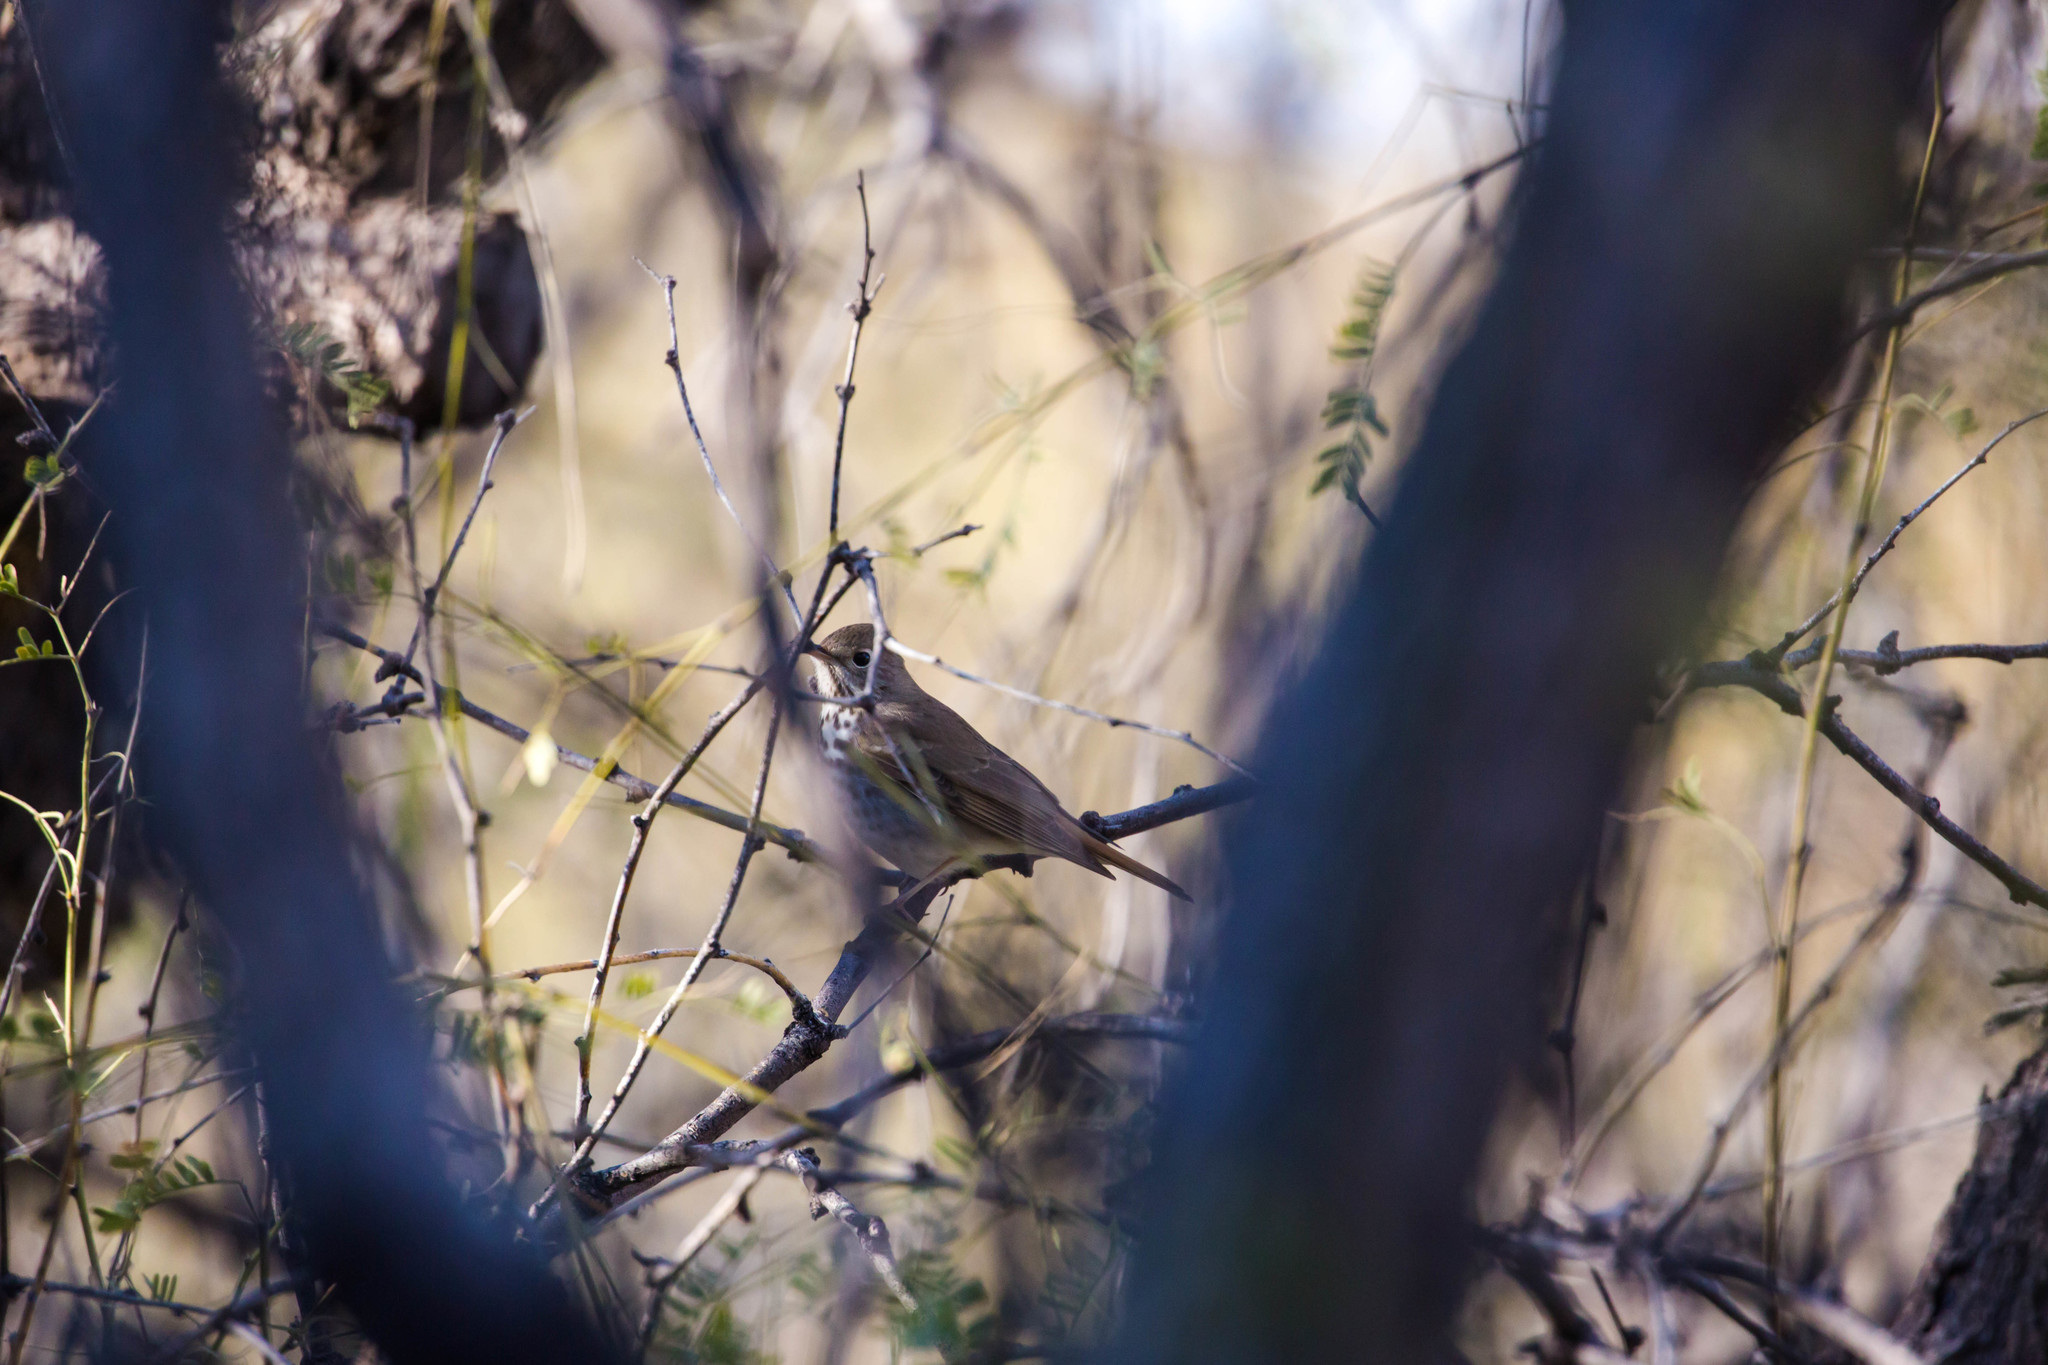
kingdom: Animalia
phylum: Chordata
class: Aves
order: Passeriformes
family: Turdidae
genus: Catharus
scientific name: Catharus guttatus
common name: Hermit thrush
